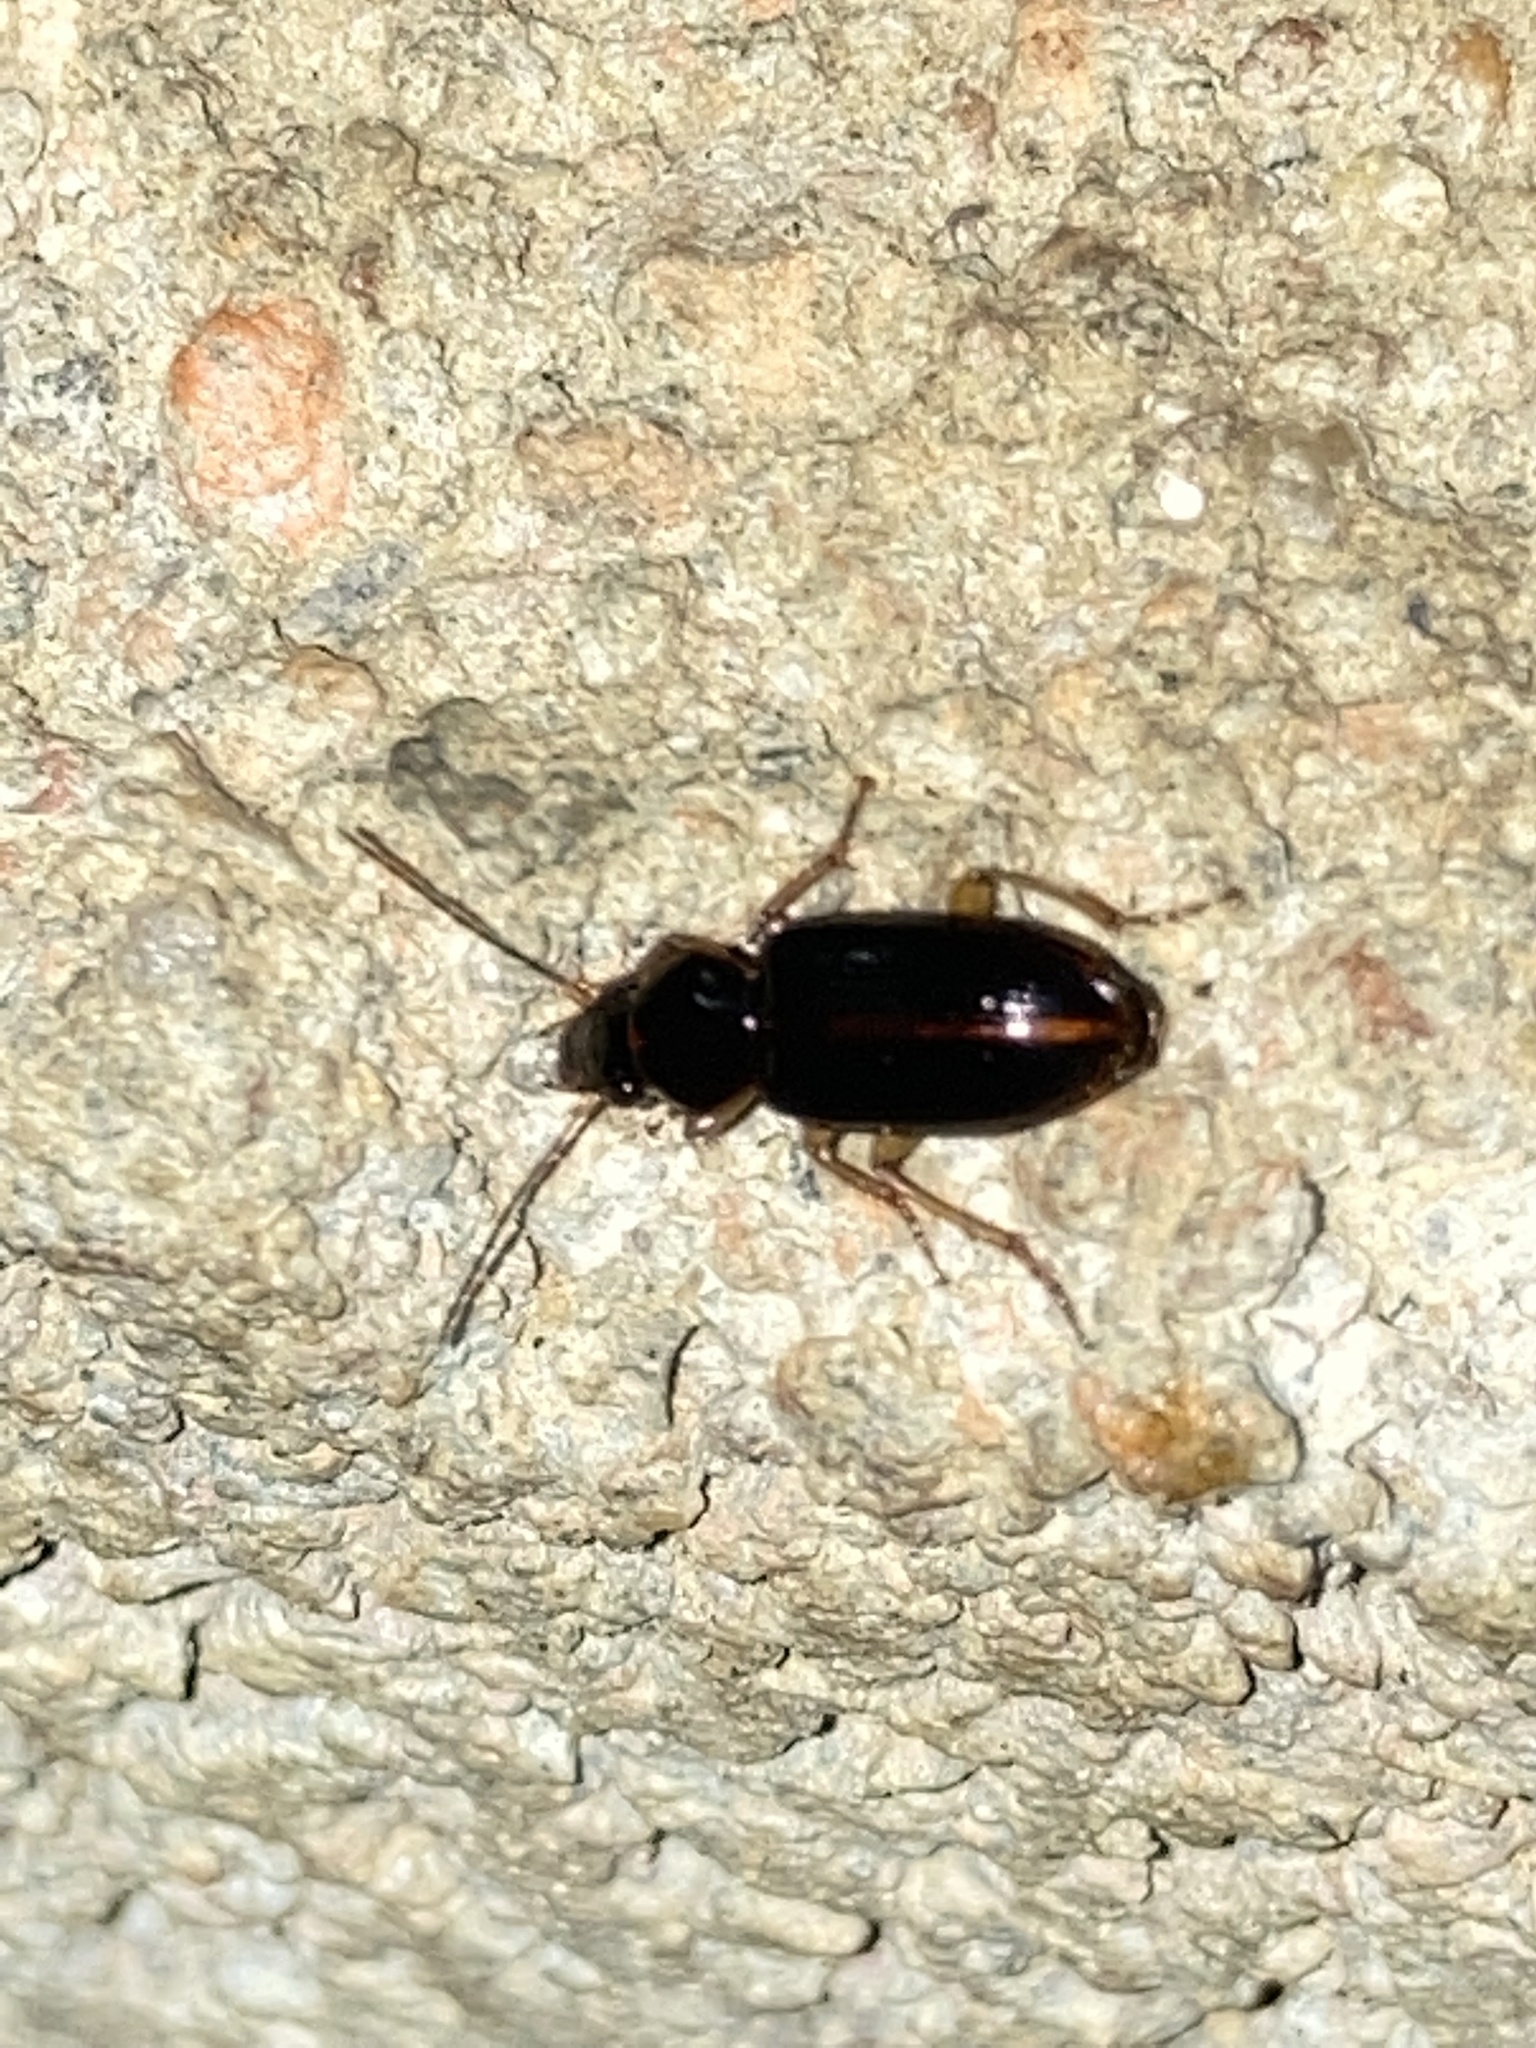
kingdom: Animalia
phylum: Arthropoda
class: Insecta
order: Coleoptera
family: Carabidae
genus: Stenolophus
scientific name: Stenolophus ochropezus
